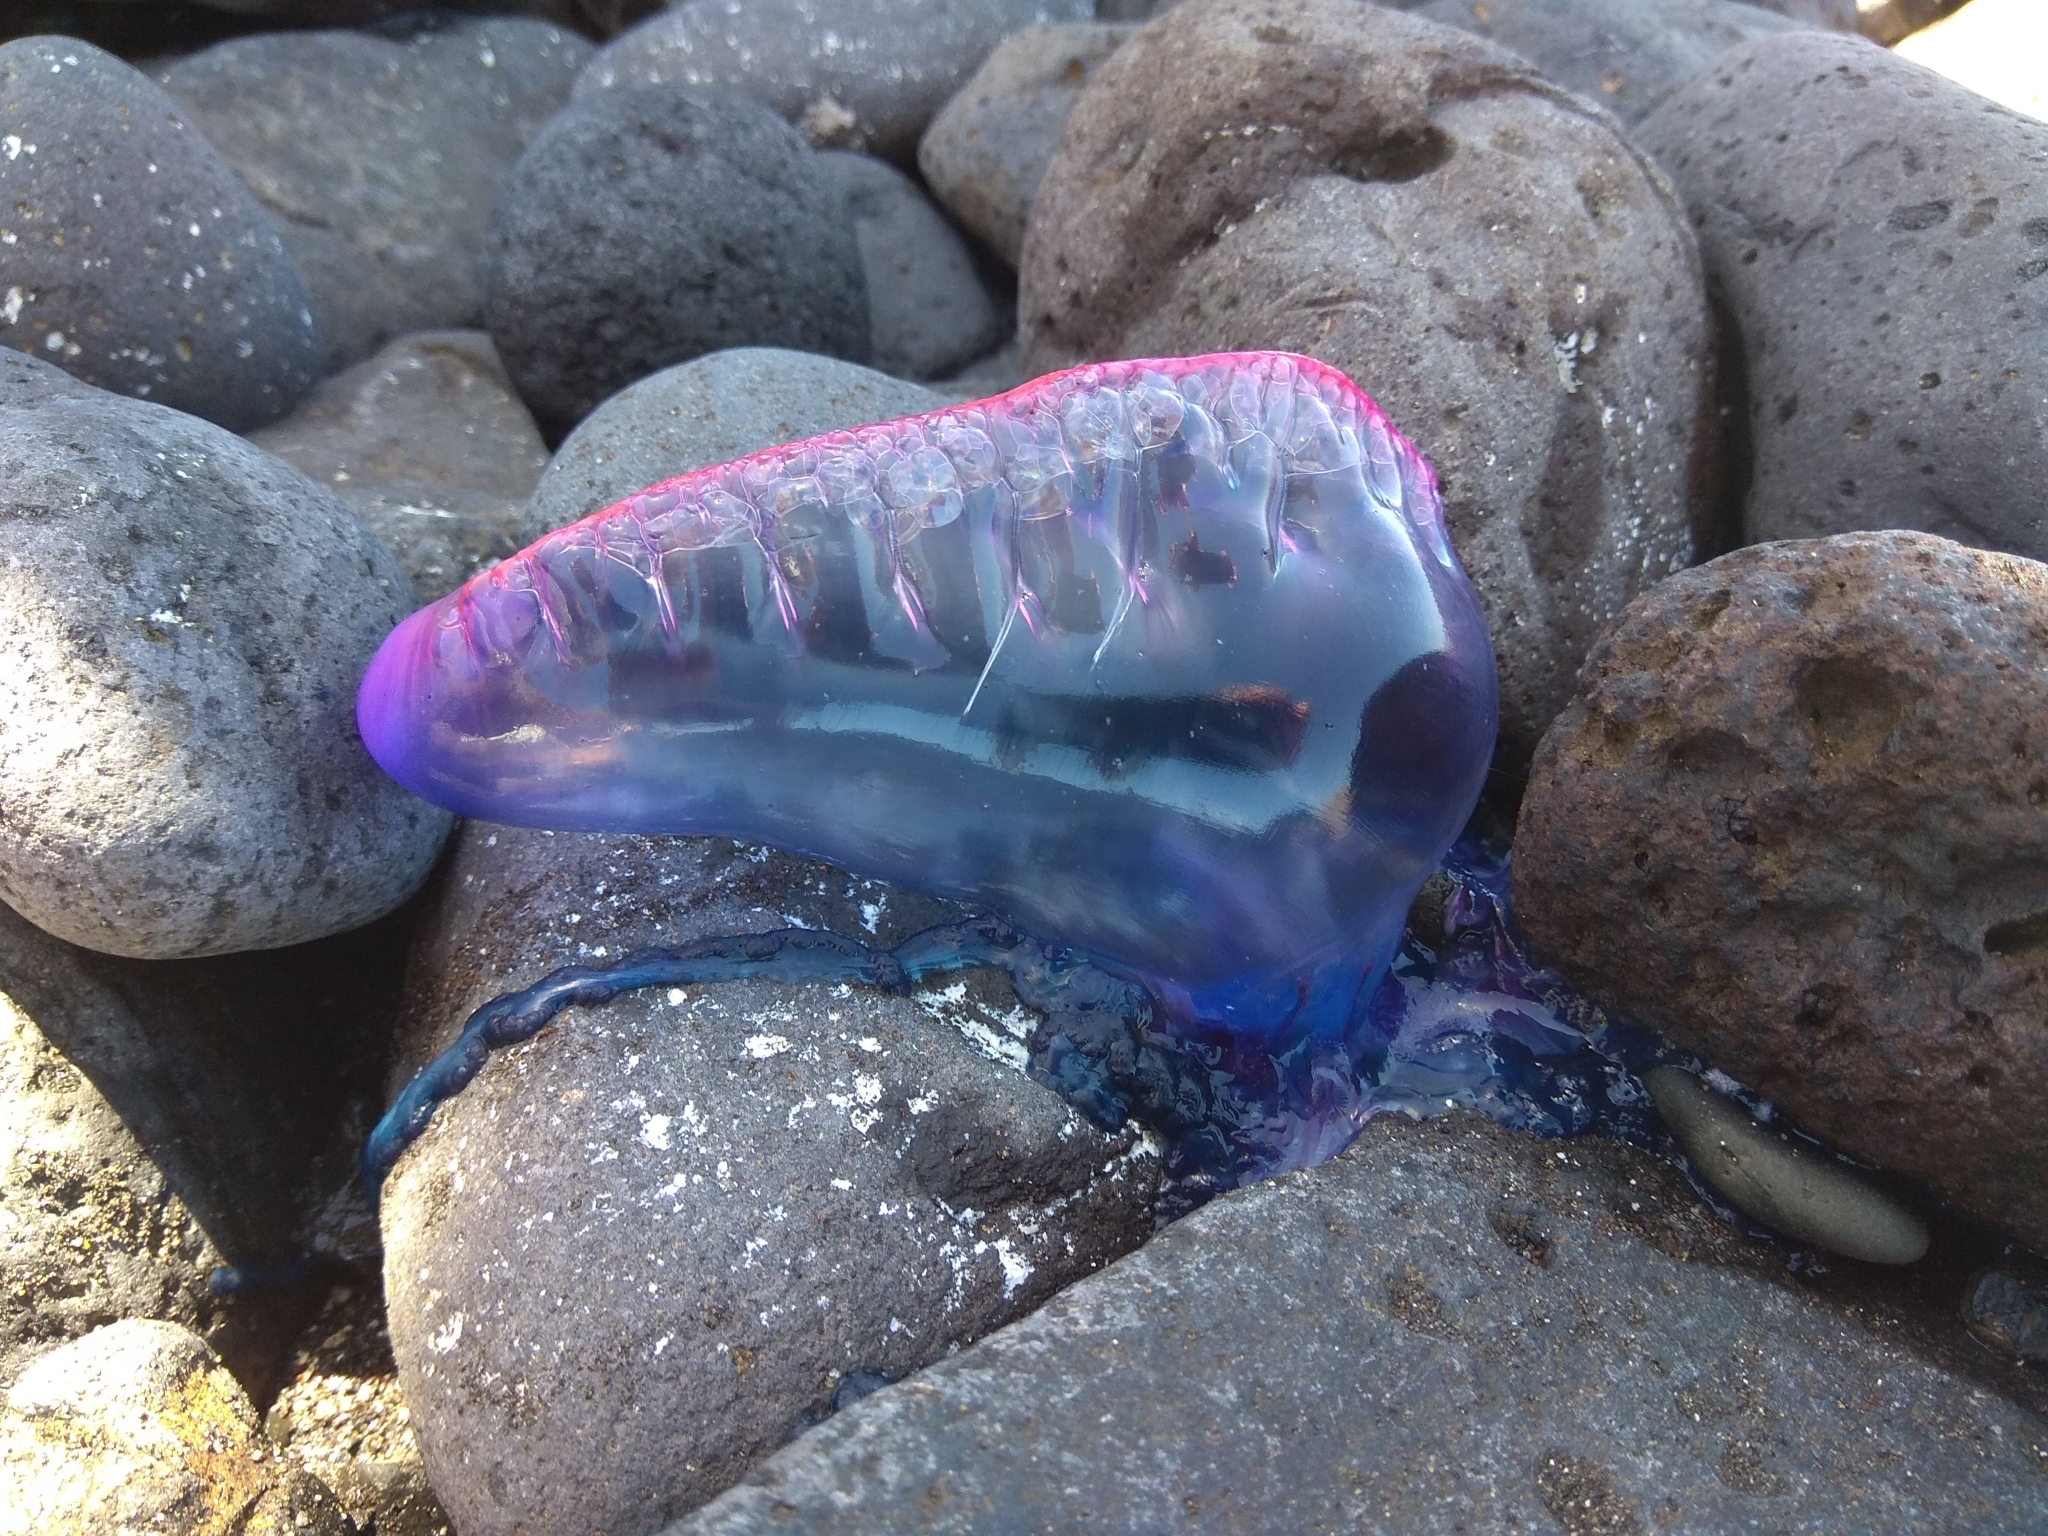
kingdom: Animalia
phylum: Cnidaria
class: Hydrozoa
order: Siphonophorae
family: Physaliidae
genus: Physalia
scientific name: Physalia physalis
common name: Portuguese man-of-war
